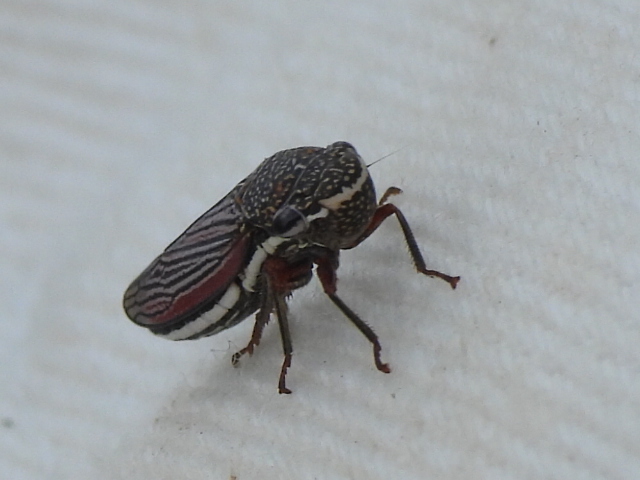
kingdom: Animalia
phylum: Arthropoda
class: Insecta
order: Hemiptera
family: Cicadellidae
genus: Cuerna
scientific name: Cuerna costalis
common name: Lateral-lined sharpshooter
